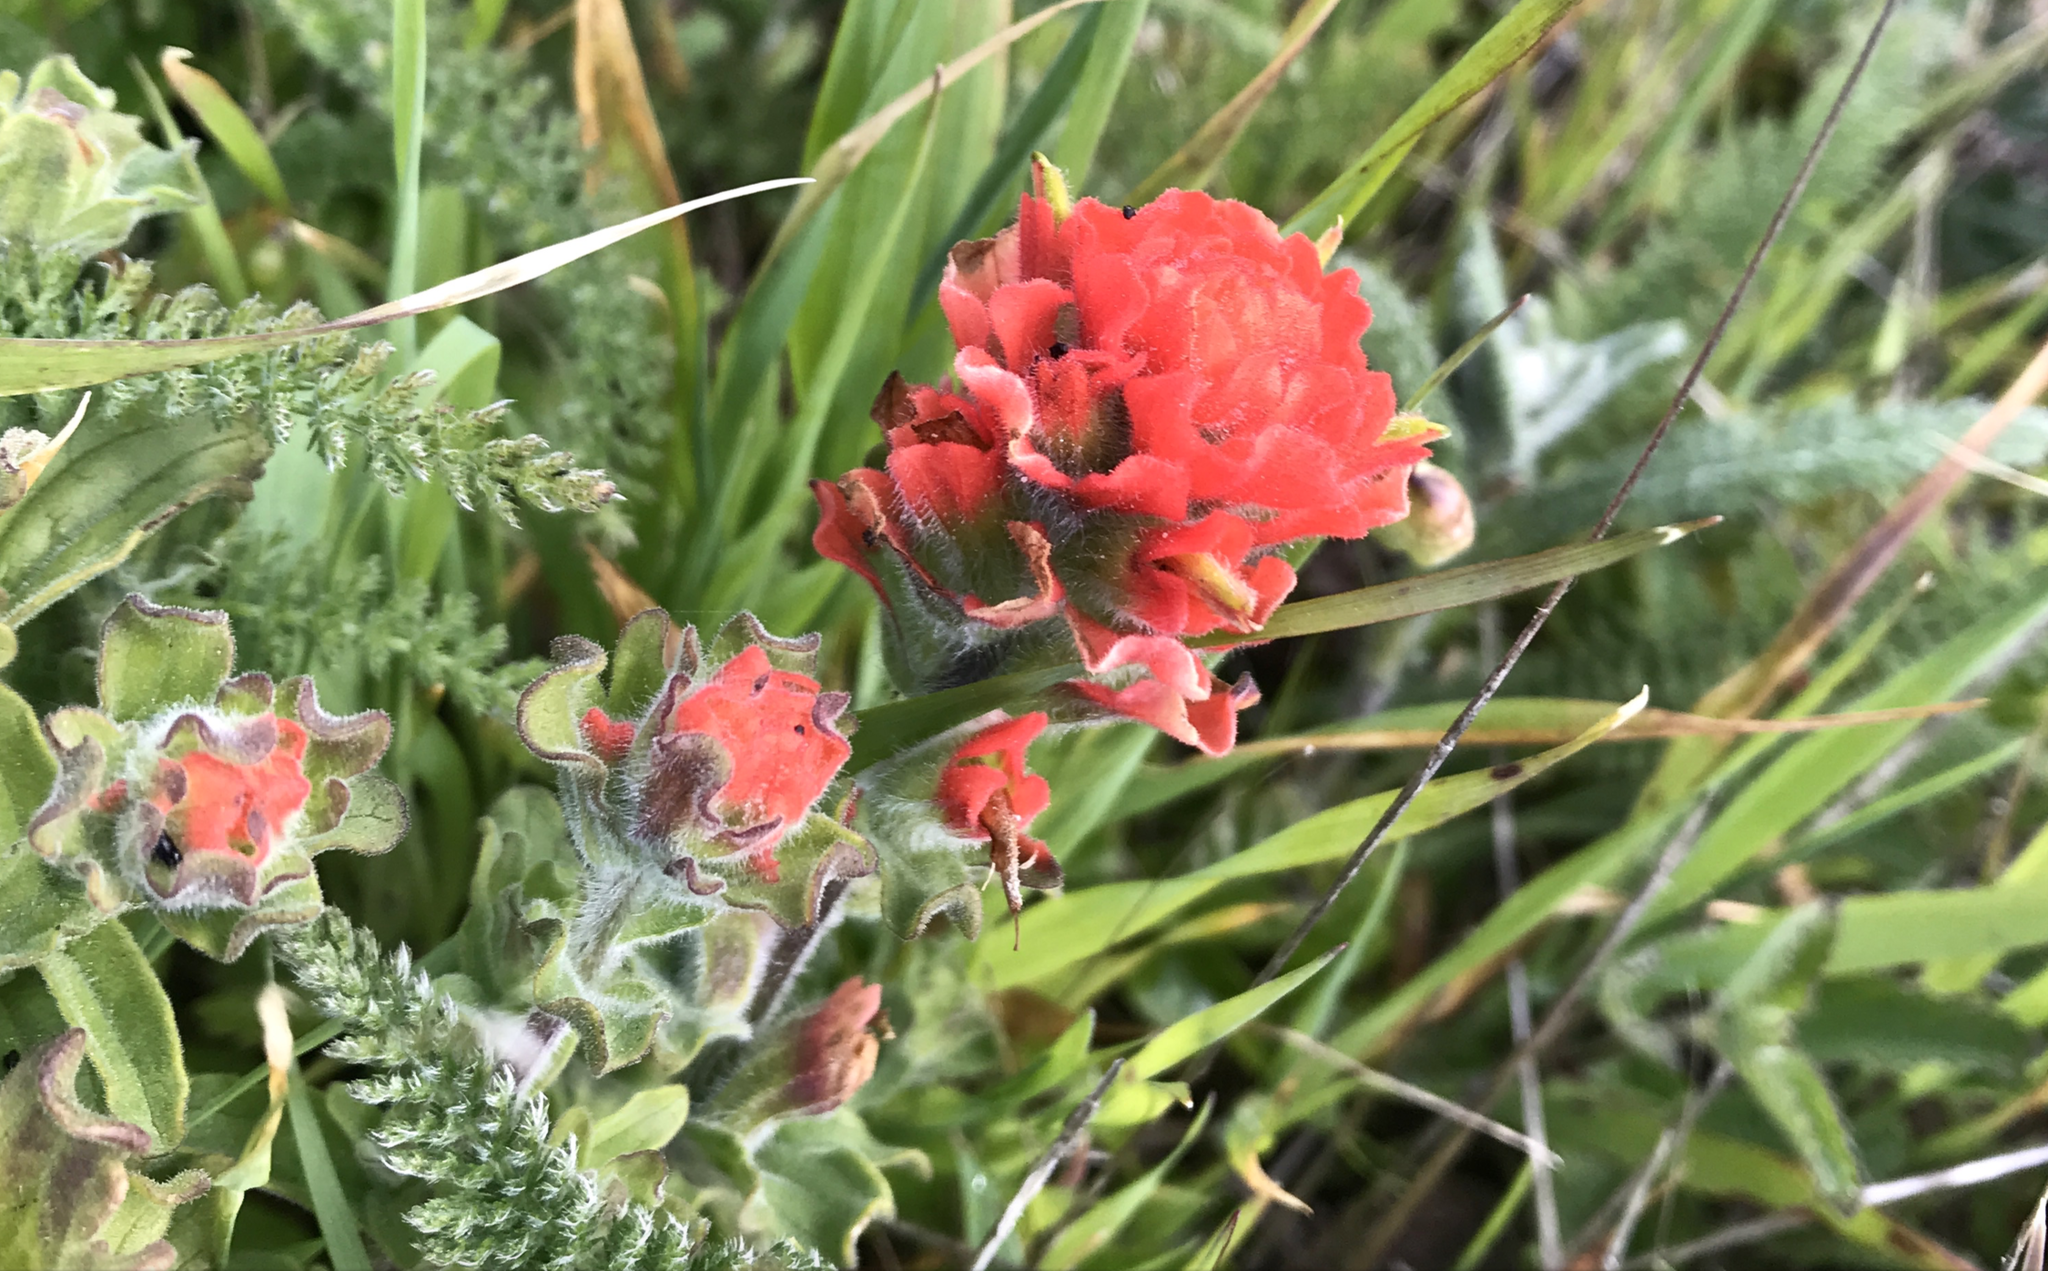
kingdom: Plantae
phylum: Tracheophyta
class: Magnoliopsida
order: Lamiales
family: Orobanchaceae
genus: Castilleja
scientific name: Castilleja wightii
